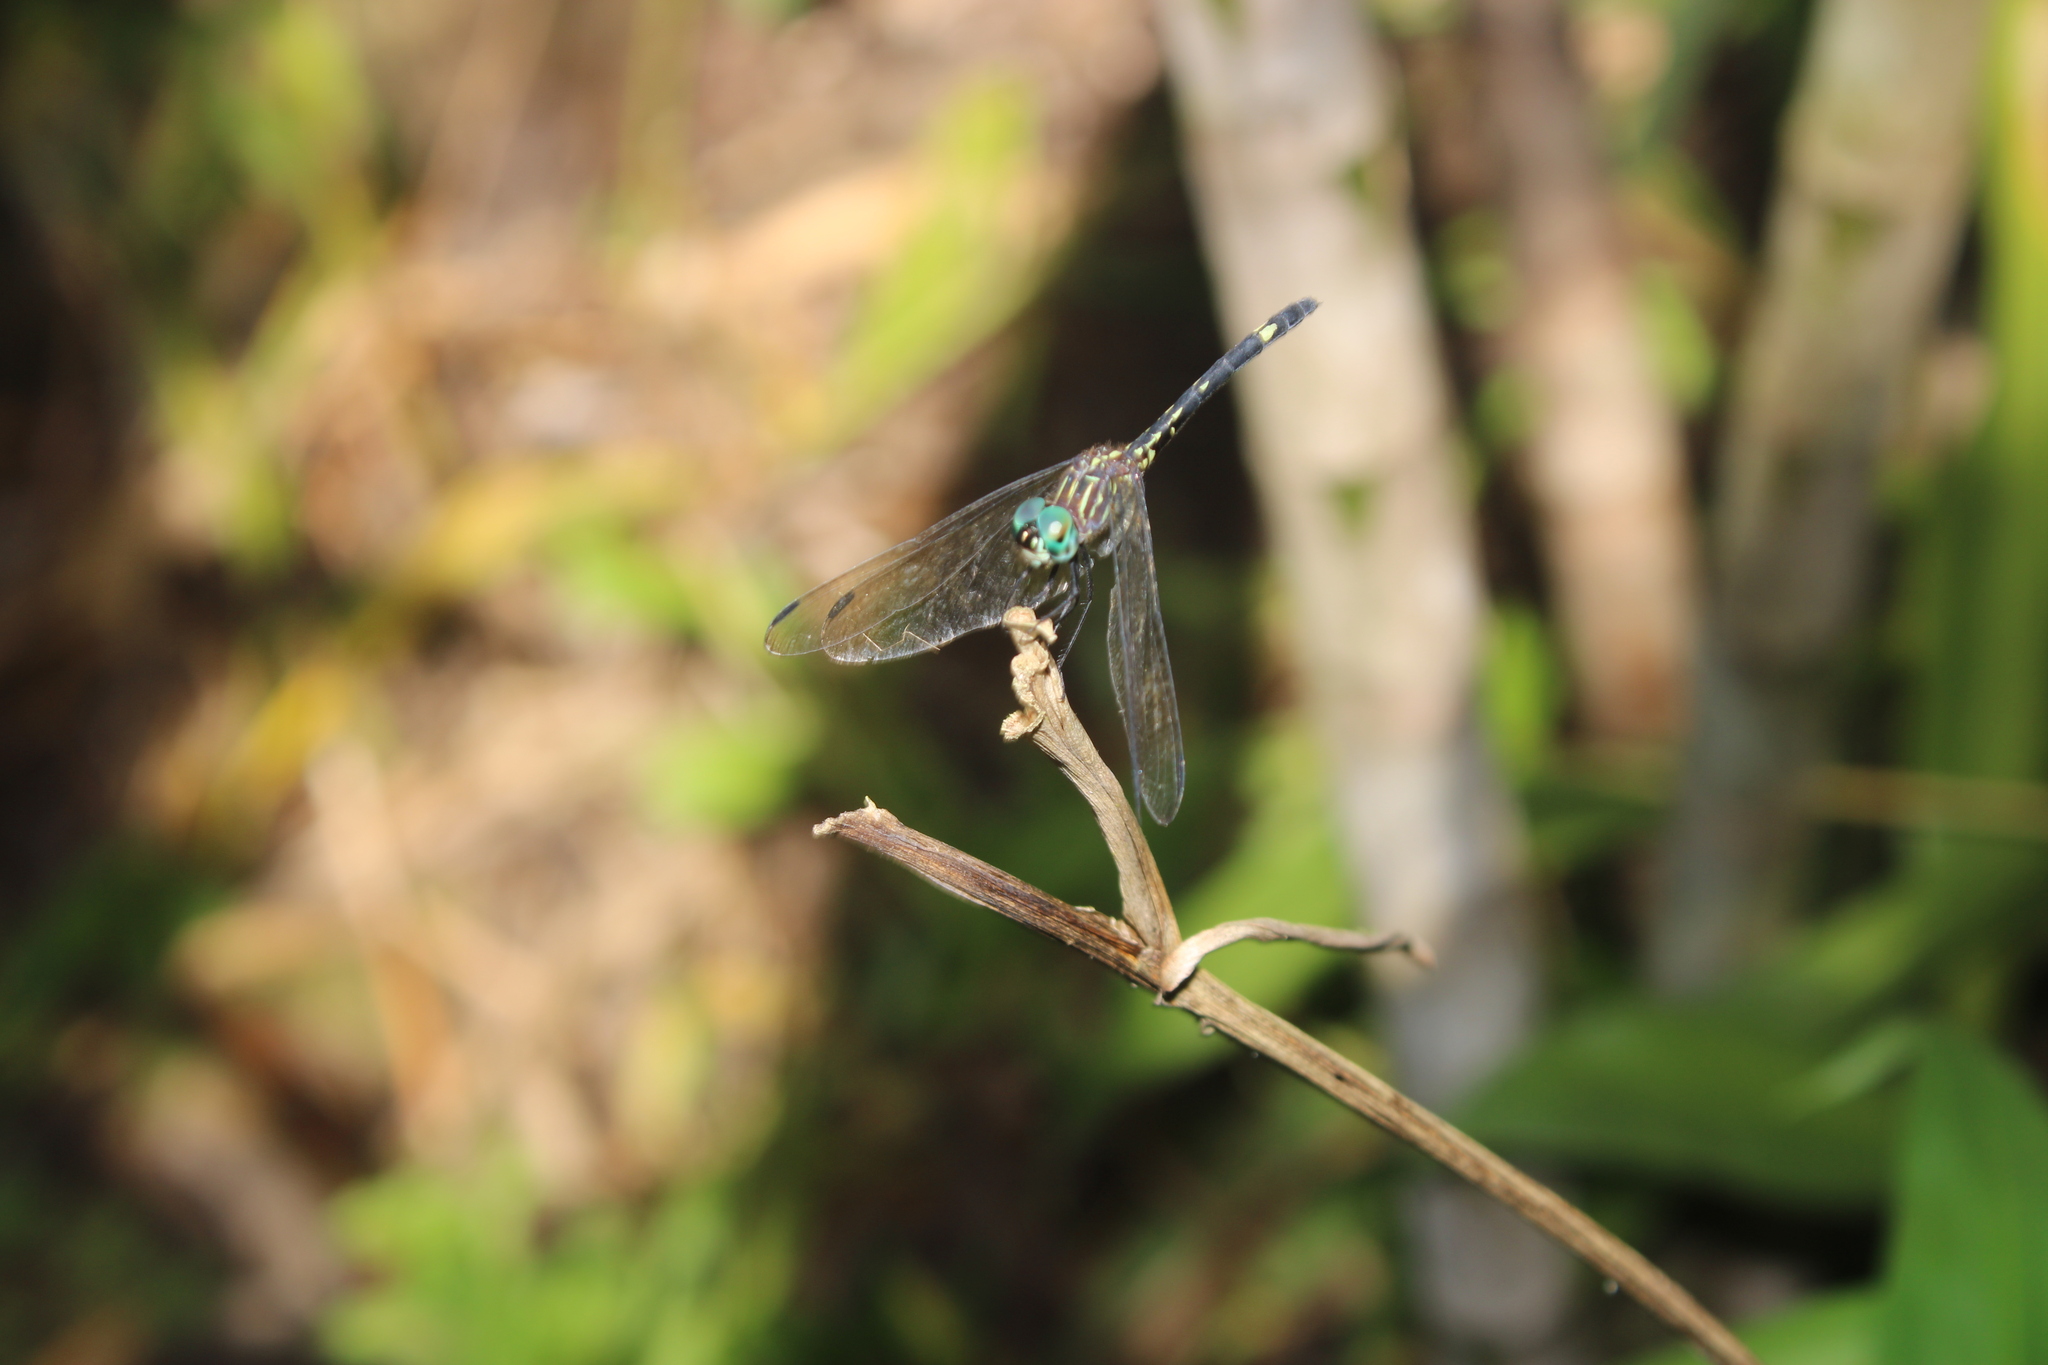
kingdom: Animalia
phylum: Arthropoda
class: Insecta
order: Odonata
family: Libellulidae
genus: Dythemis
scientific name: Dythemis nigra
